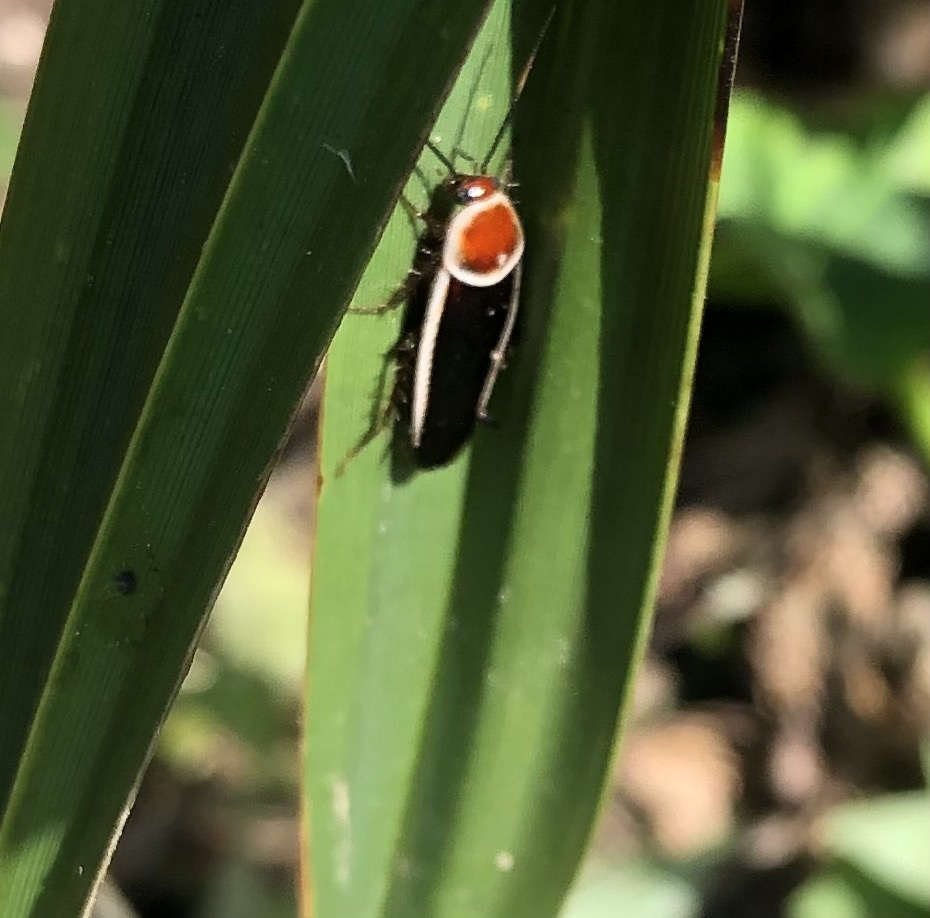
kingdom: Animalia
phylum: Arthropoda
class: Insecta
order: Blattodea
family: Ectobiidae
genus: Pseudomops
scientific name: Pseudomops septentrionalis
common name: Pale-bordered field cockroach
